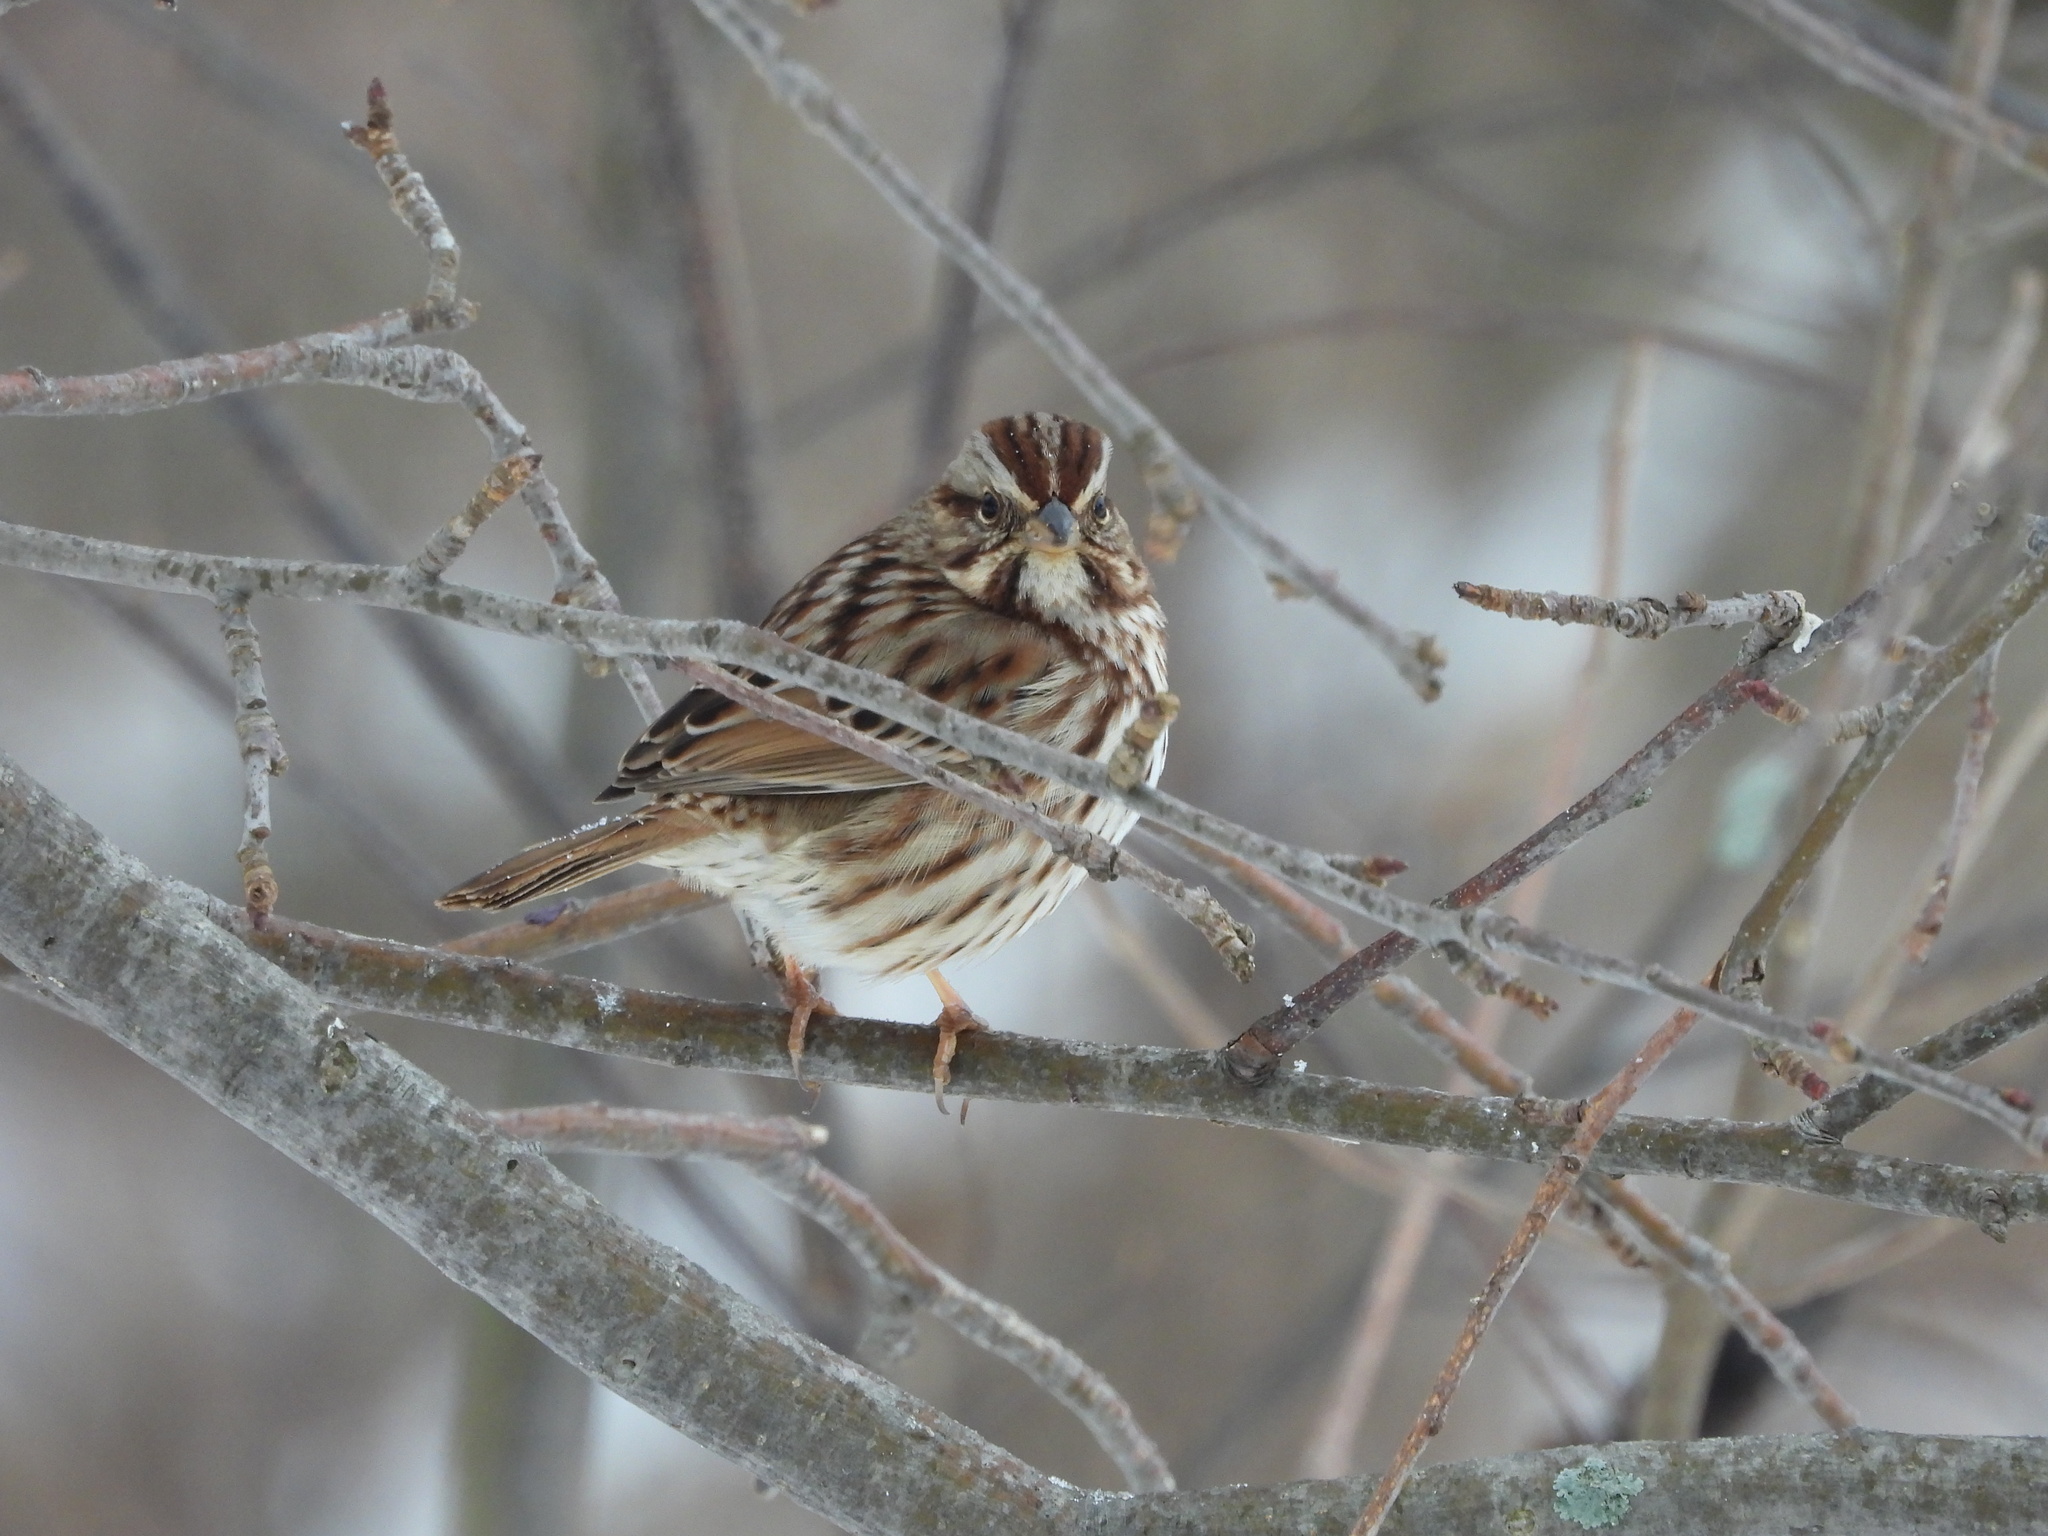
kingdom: Animalia
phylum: Chordata
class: Aves
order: Passeriformes
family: Passerellidae
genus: Melospiza
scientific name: Melospiza melodia
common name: Song sparrow
